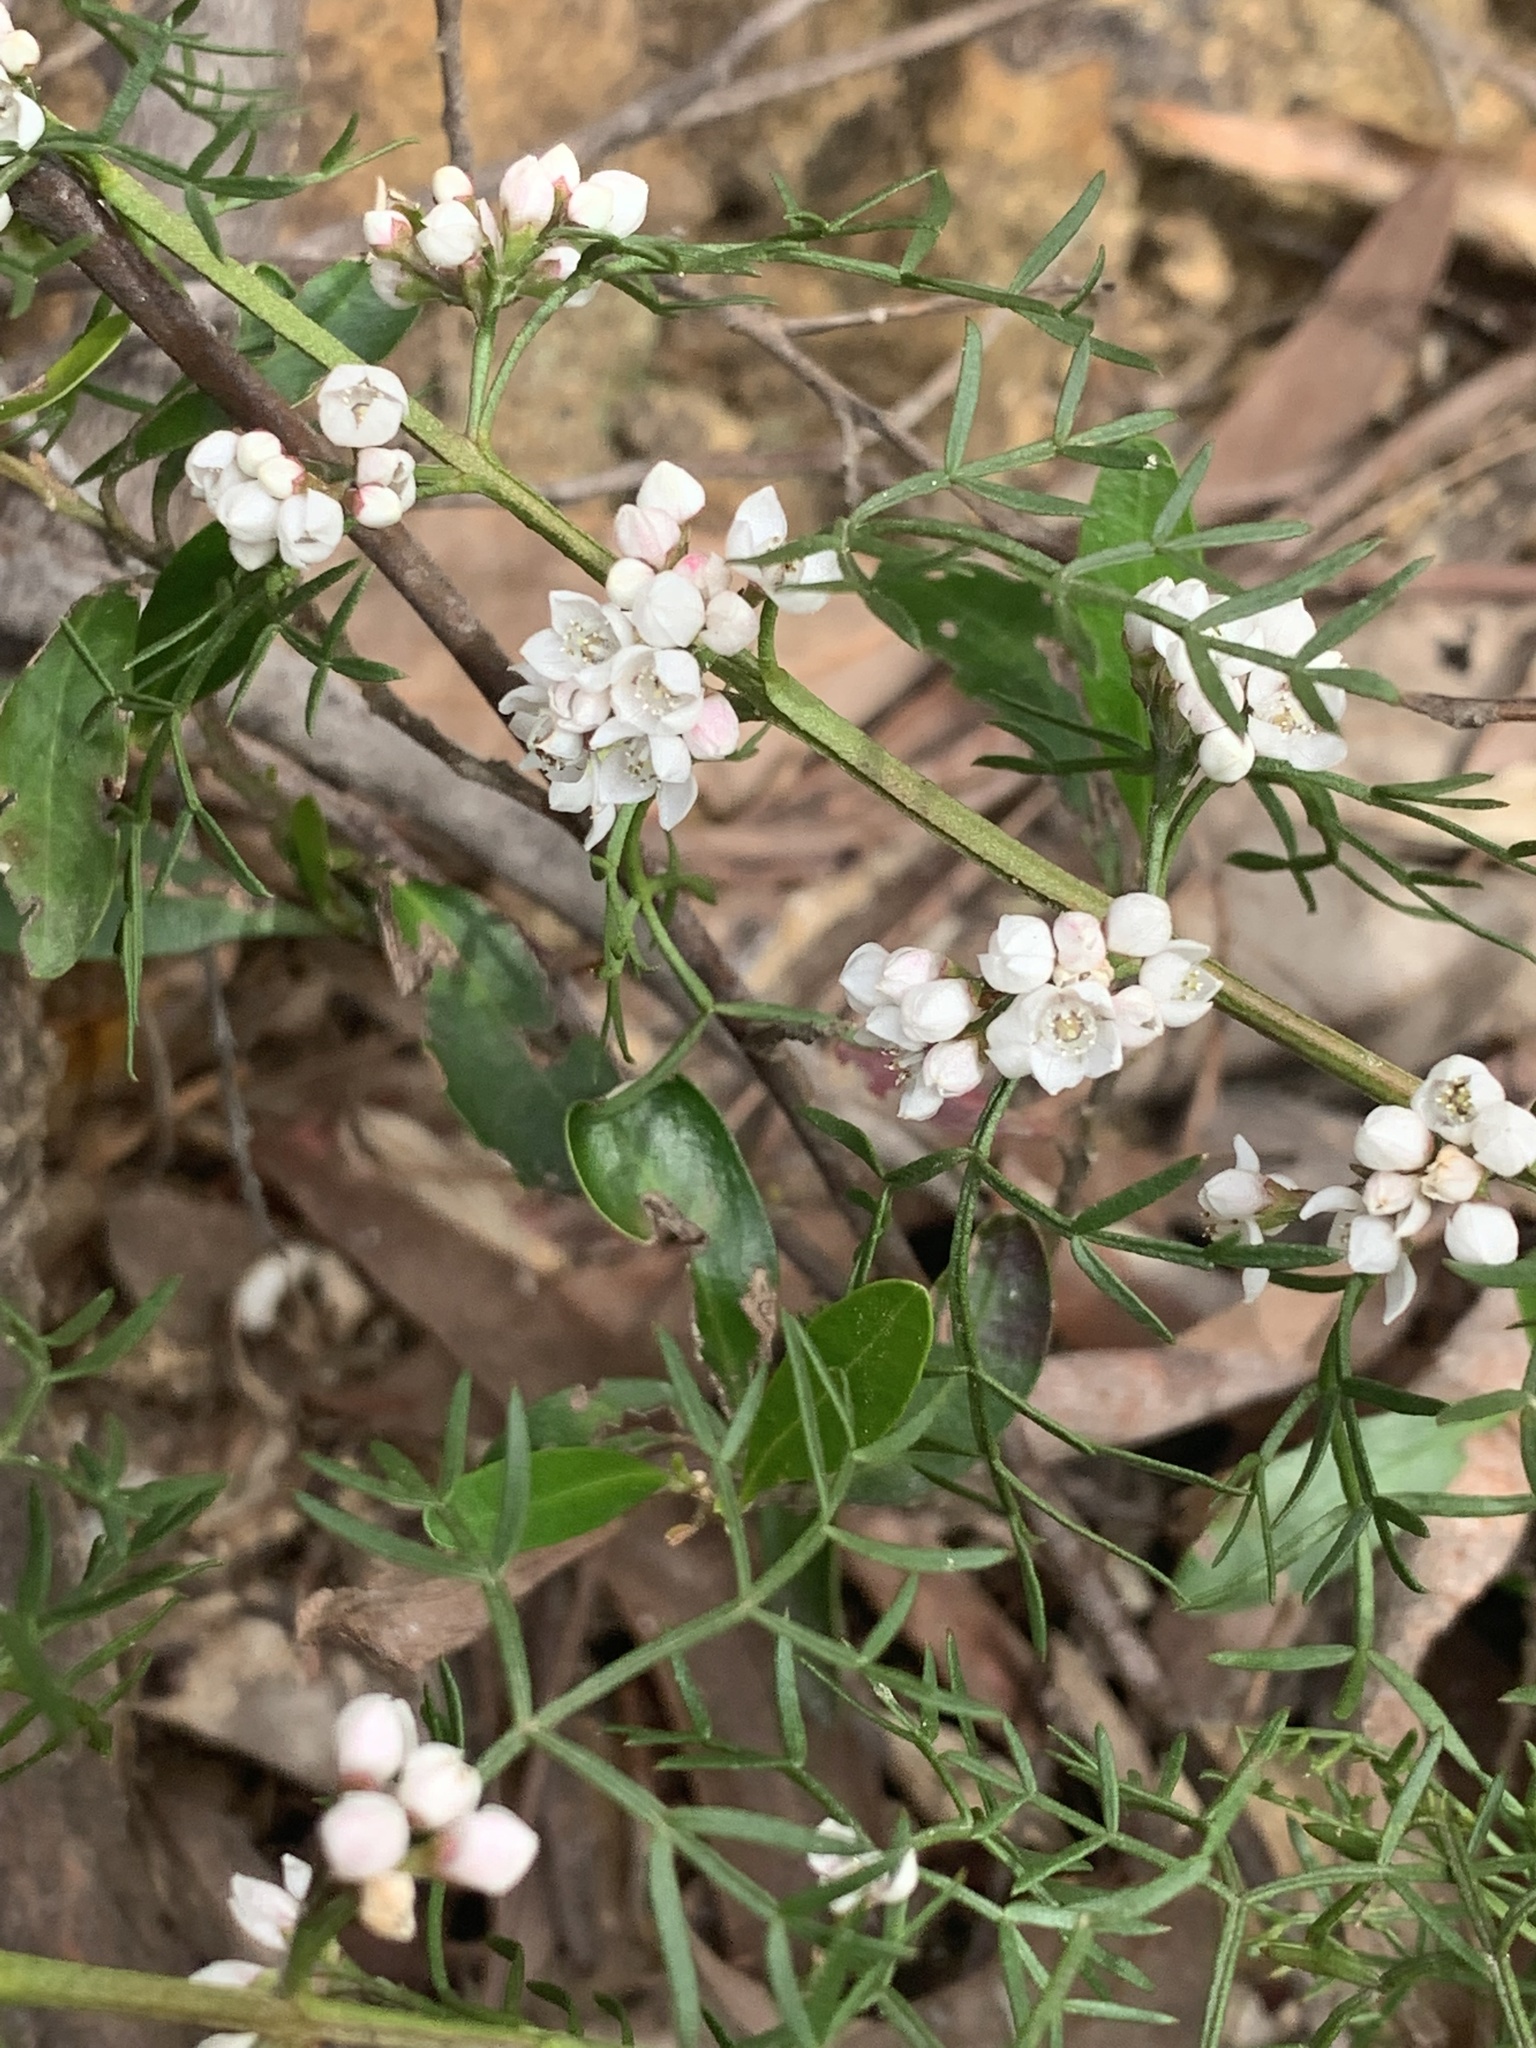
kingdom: Plantae
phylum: Tracheophyta
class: Magnoliopsida
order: Sapindales
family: Rutaceae
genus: Cyanothamnus
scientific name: Cyanothamnus quadrangulus
